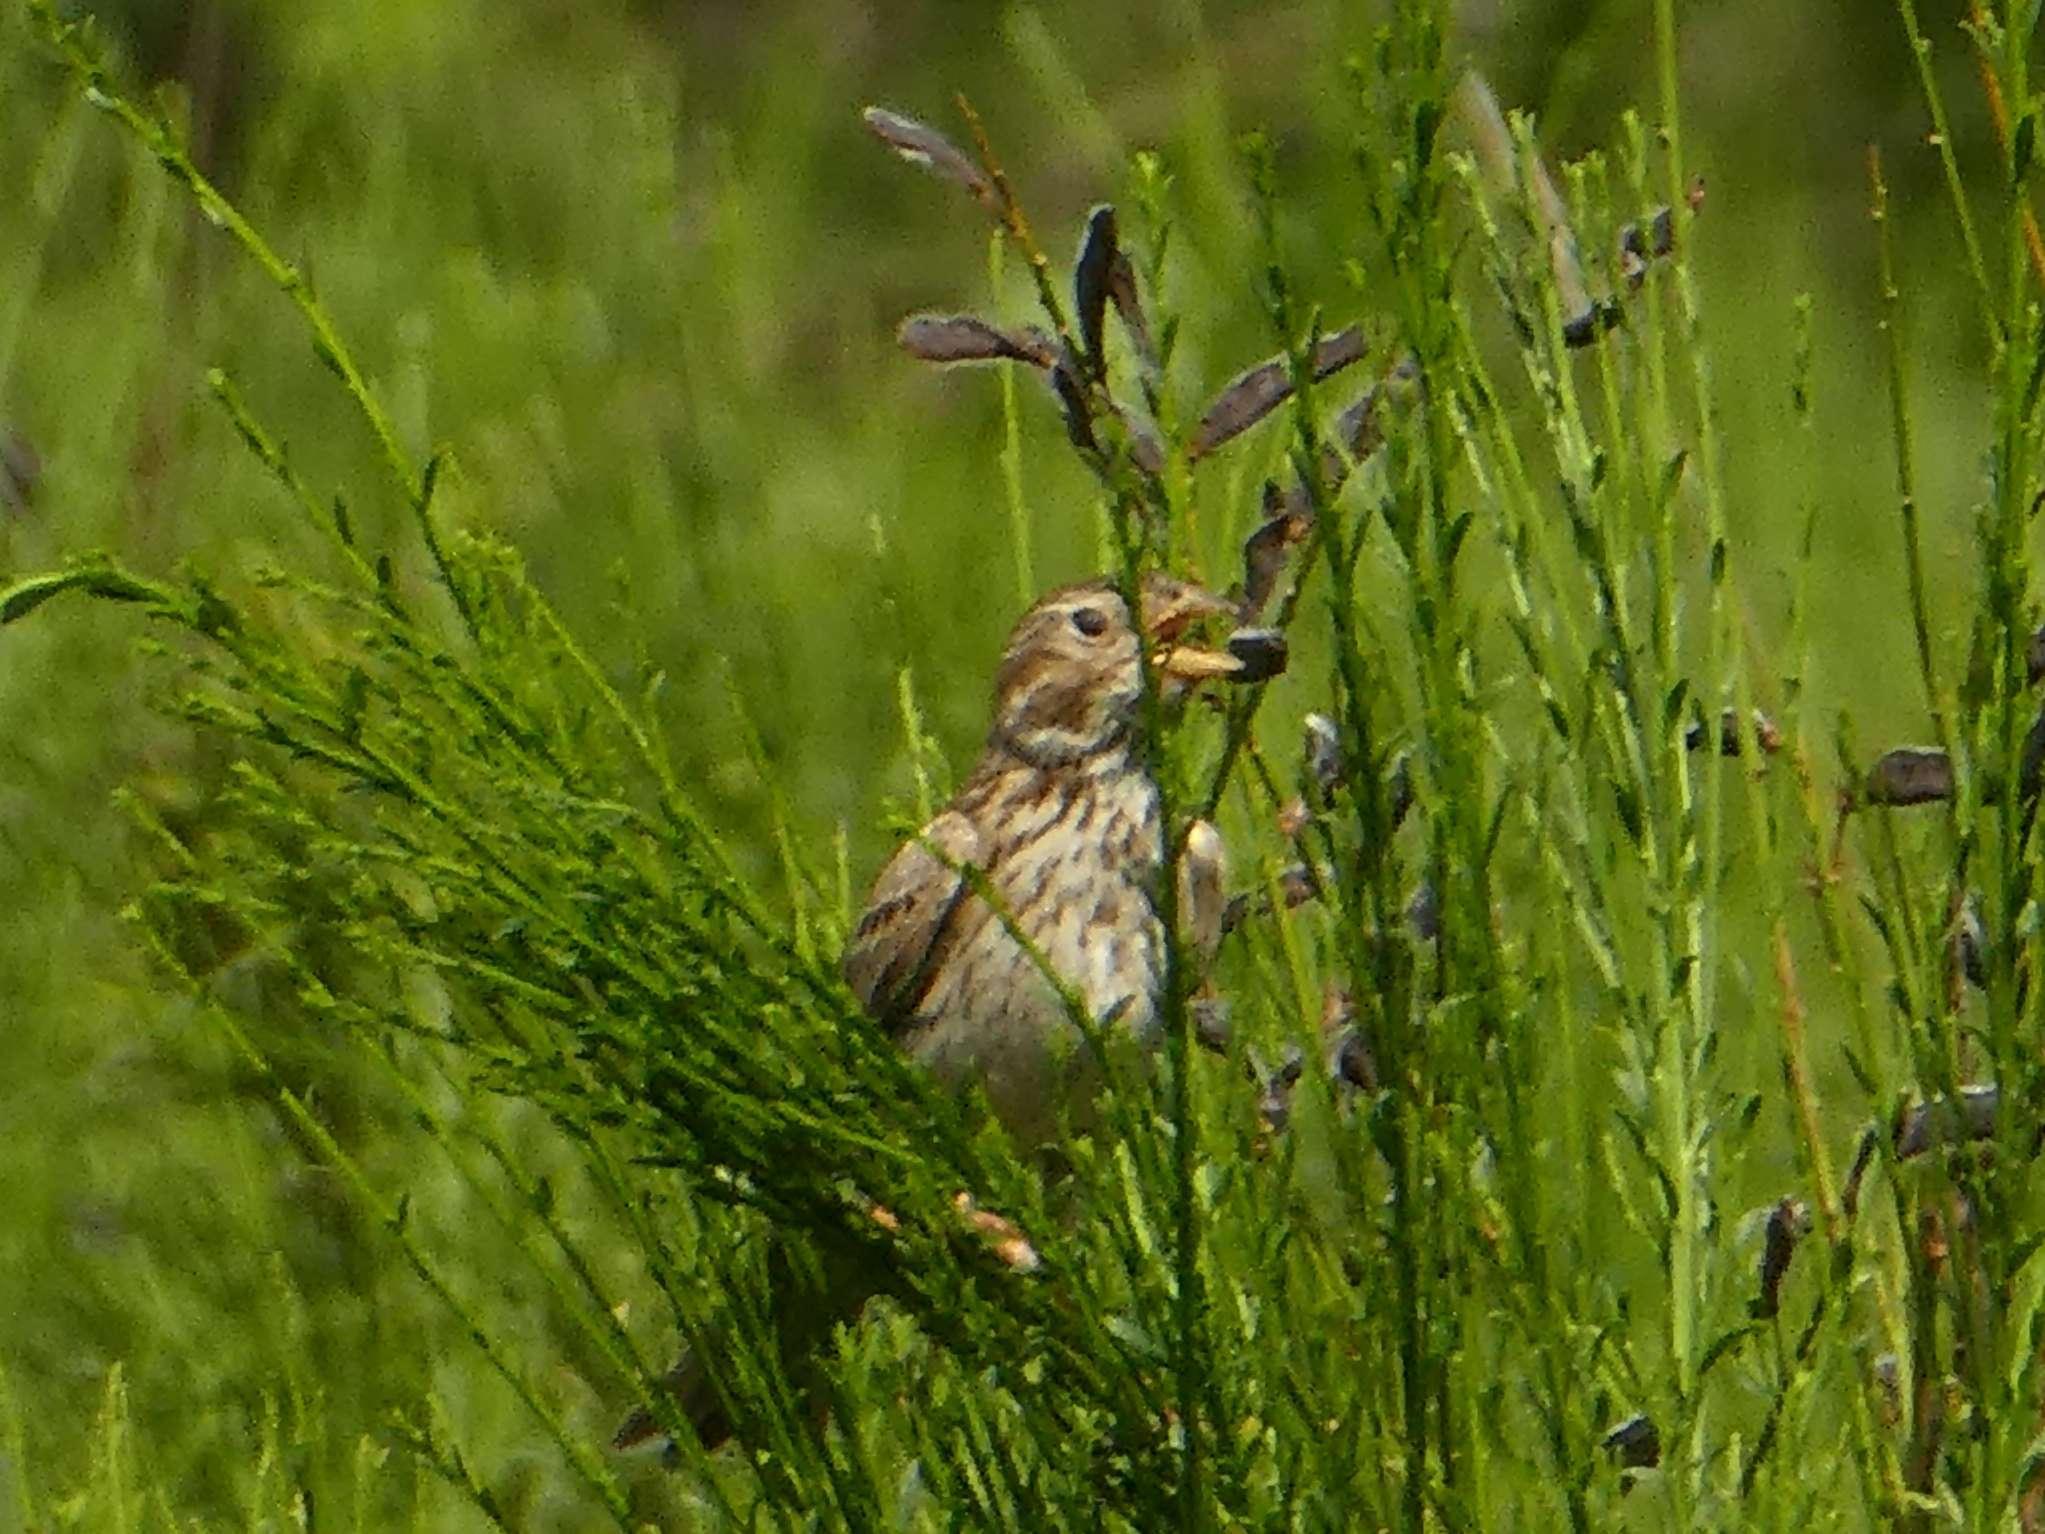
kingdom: Animalia
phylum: Chordata
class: Aves
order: Passeriformes
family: Emberizidae
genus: Emberiza
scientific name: Emberiza calandra
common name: Corn bunting
